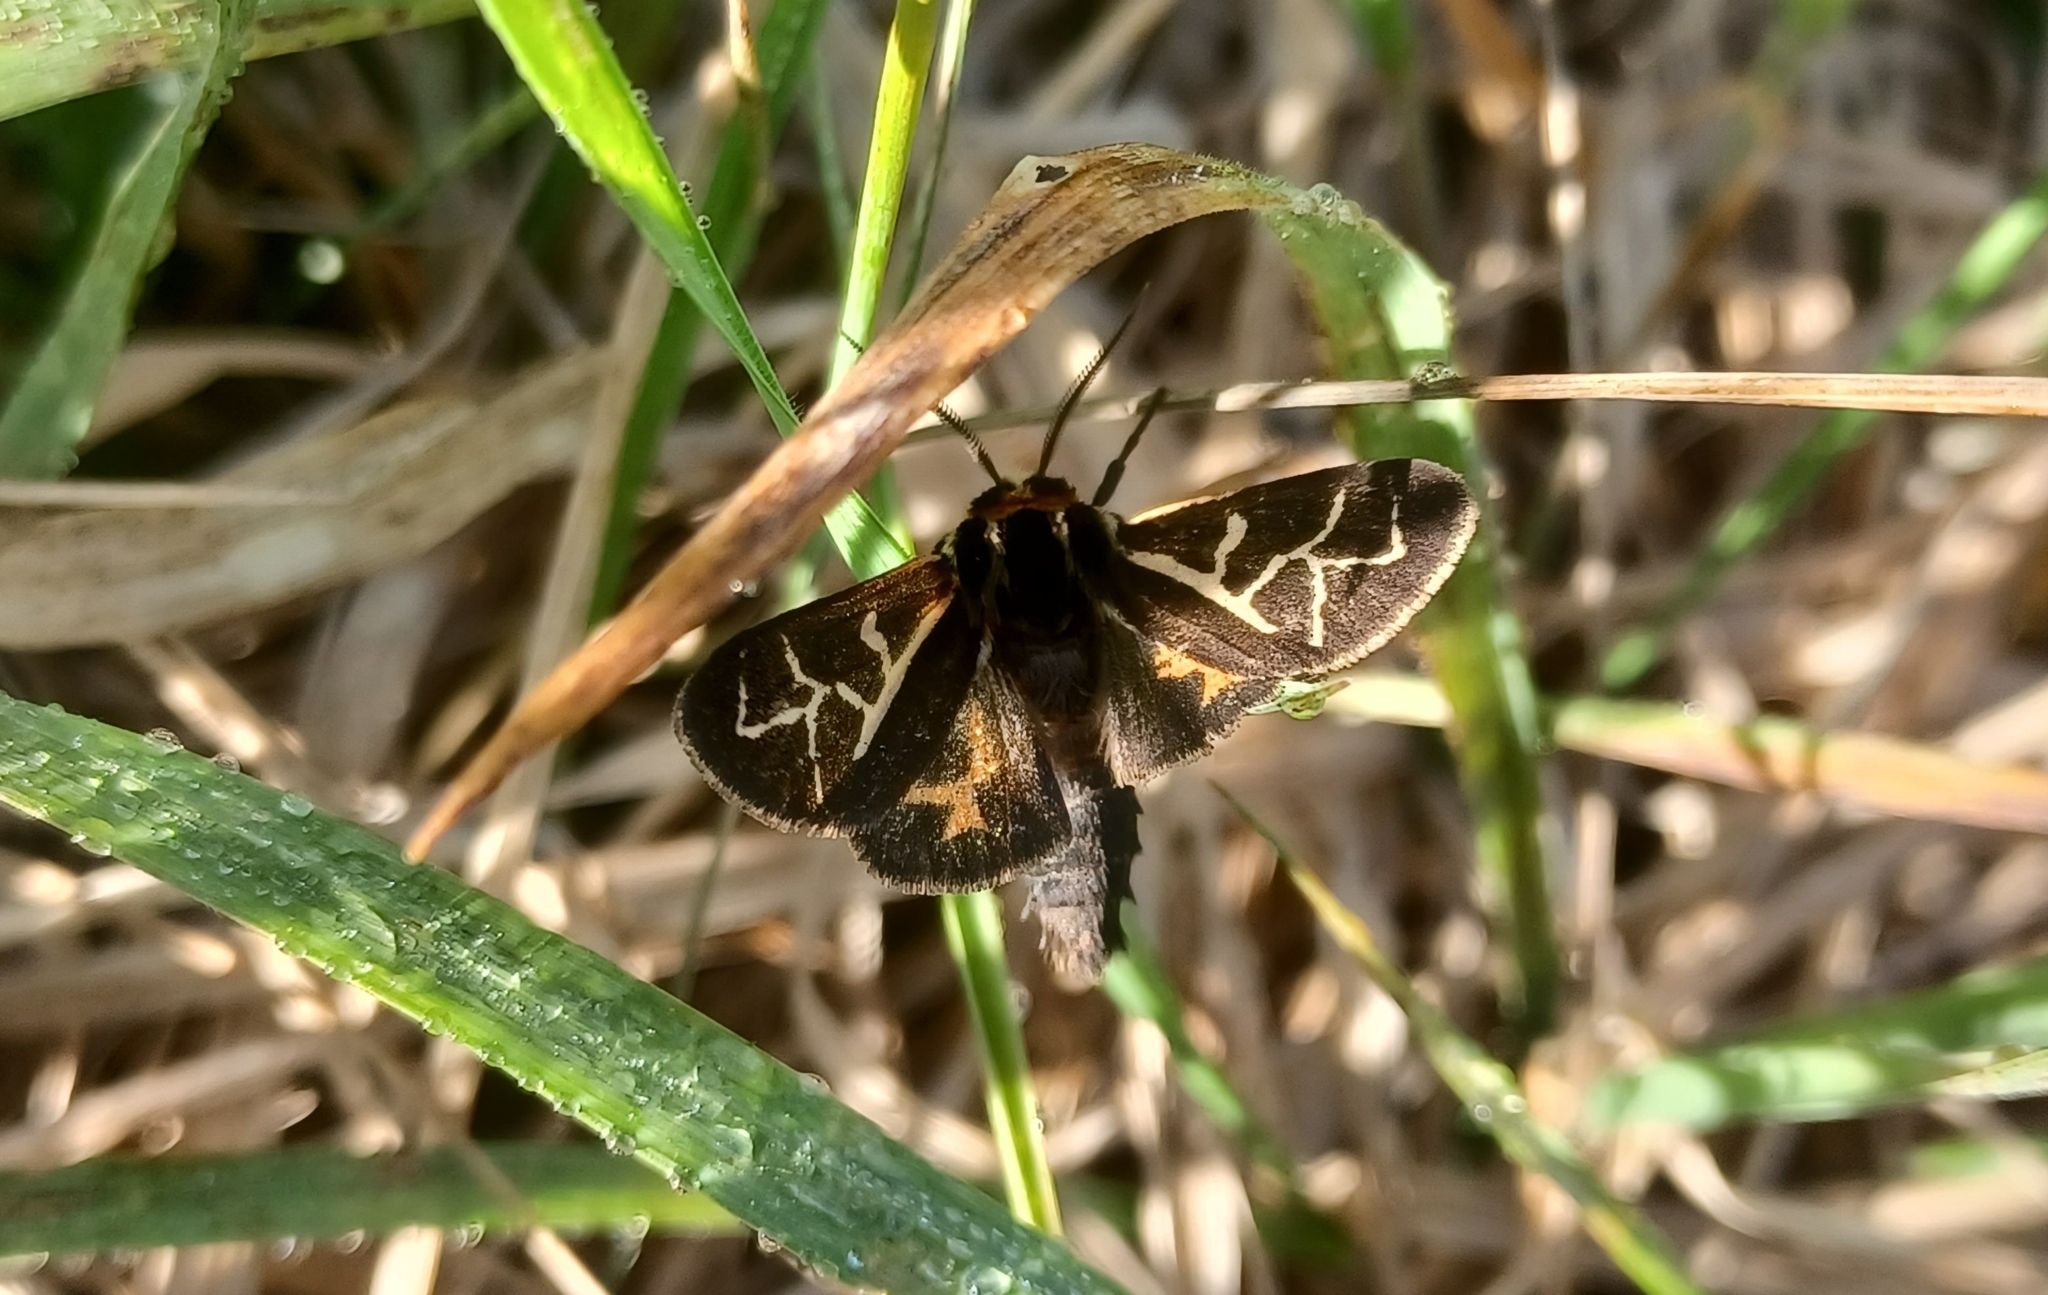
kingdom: Animalia
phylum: Arthropoda
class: Insecta
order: Lepidoptera
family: Erebidae
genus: Apantesis
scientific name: Apantesis
